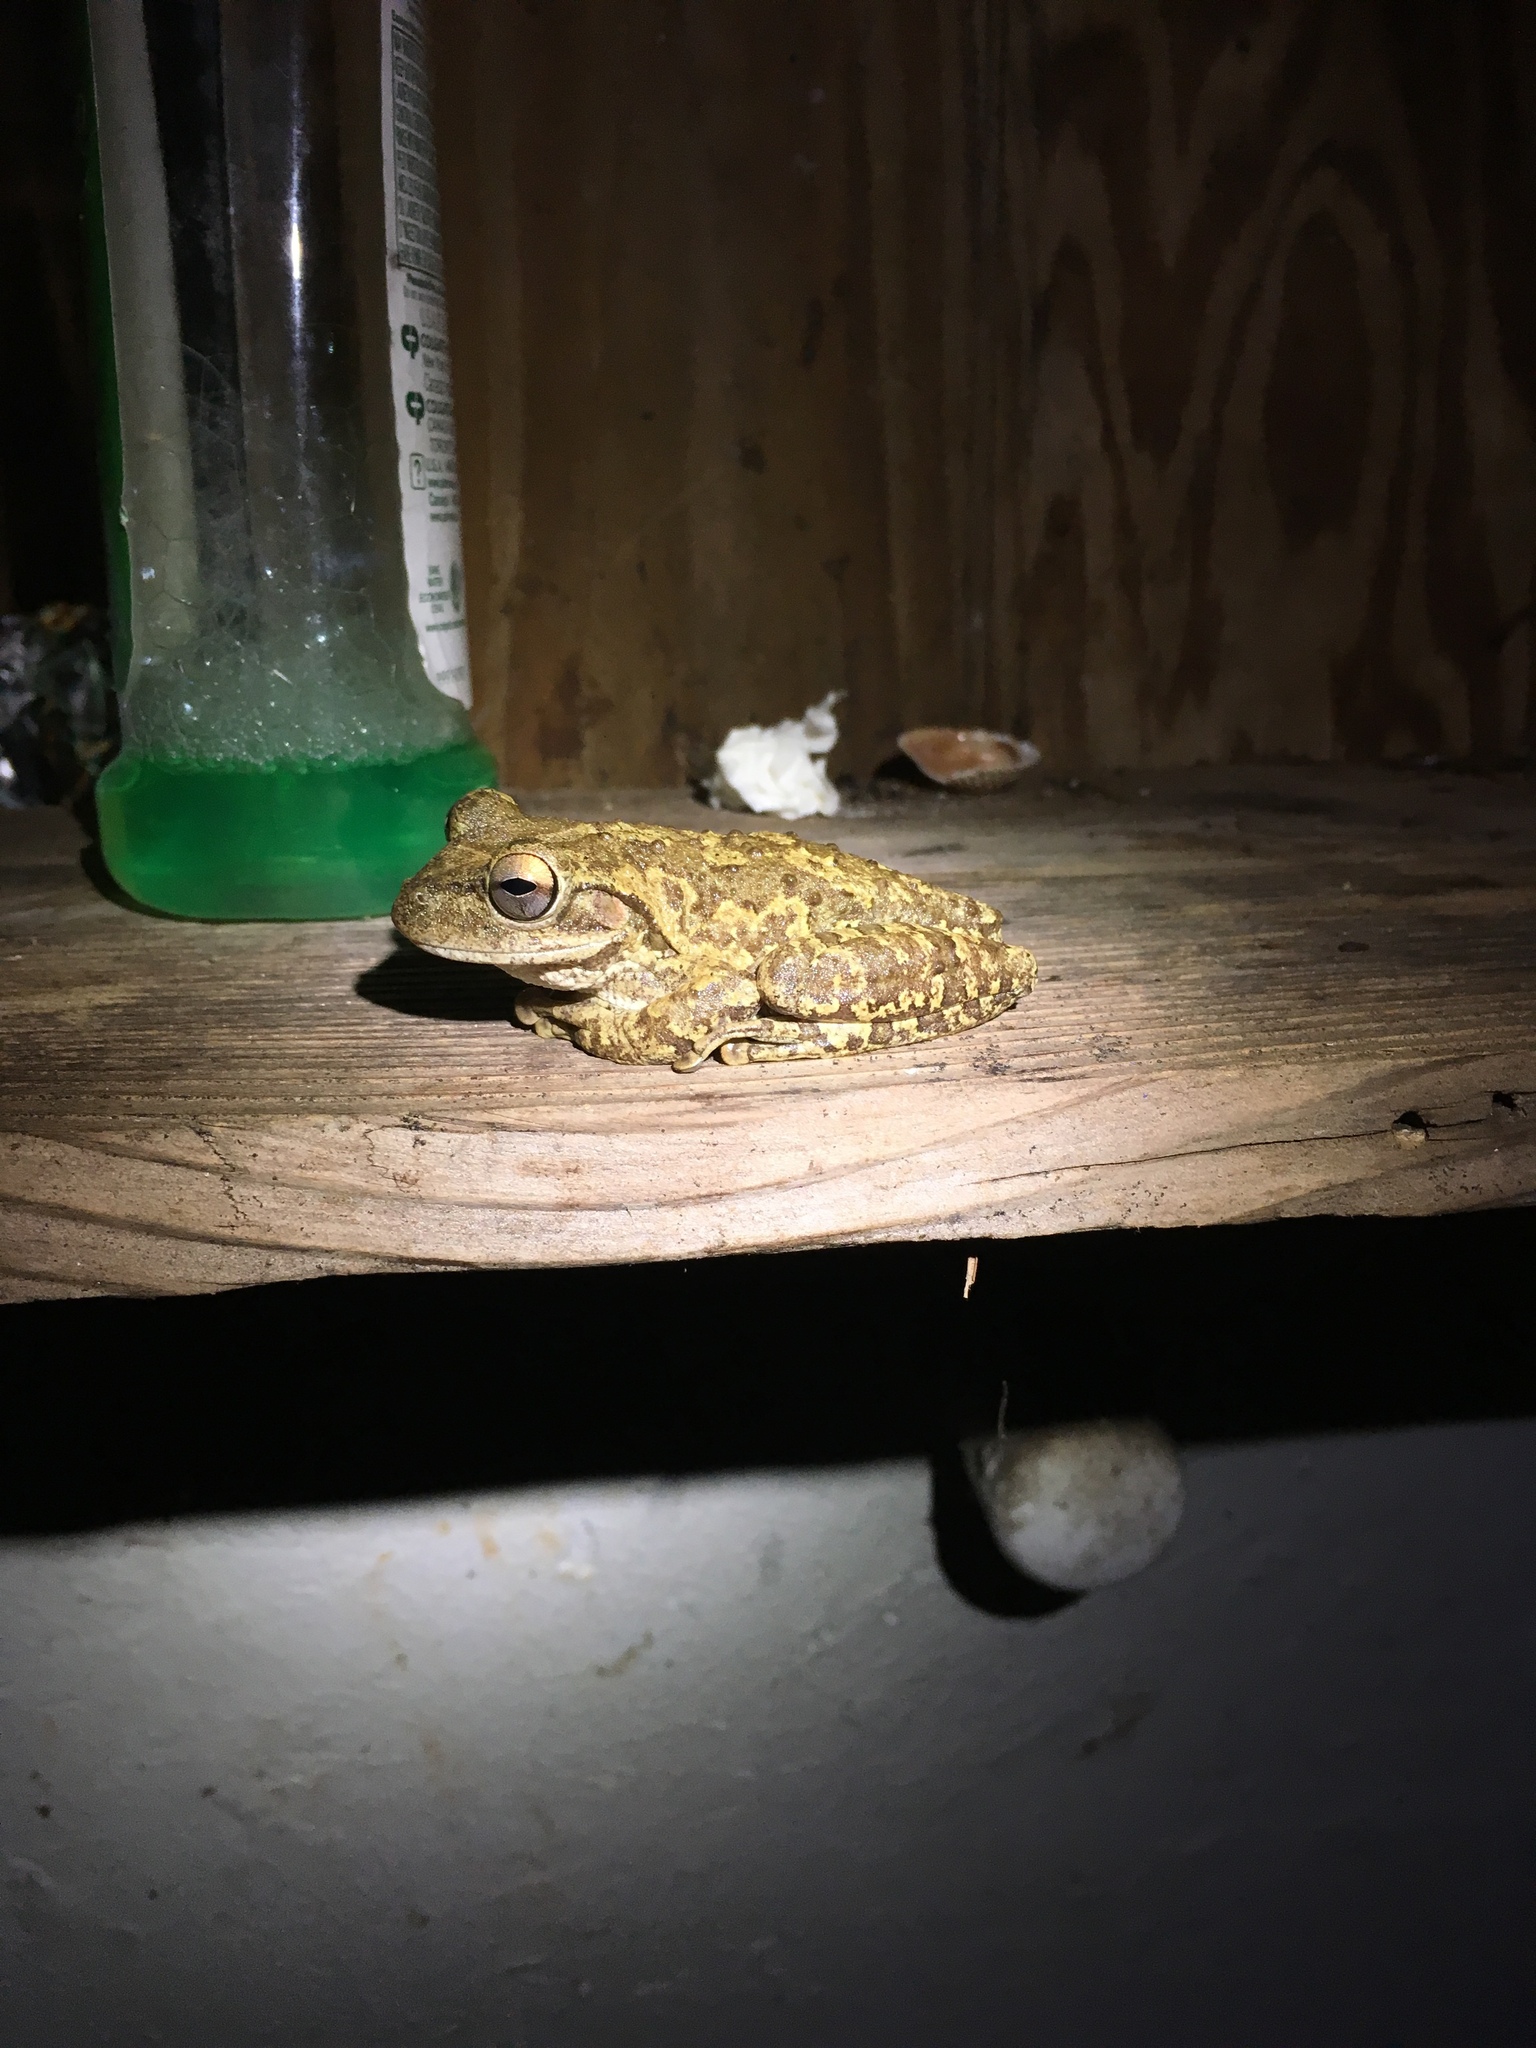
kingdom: Animalia
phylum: Chordata
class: Amphibia
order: Anura
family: Hylidae
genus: Osteopilus
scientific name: Osteopilus septentrionalis
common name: Cuban treefrog
